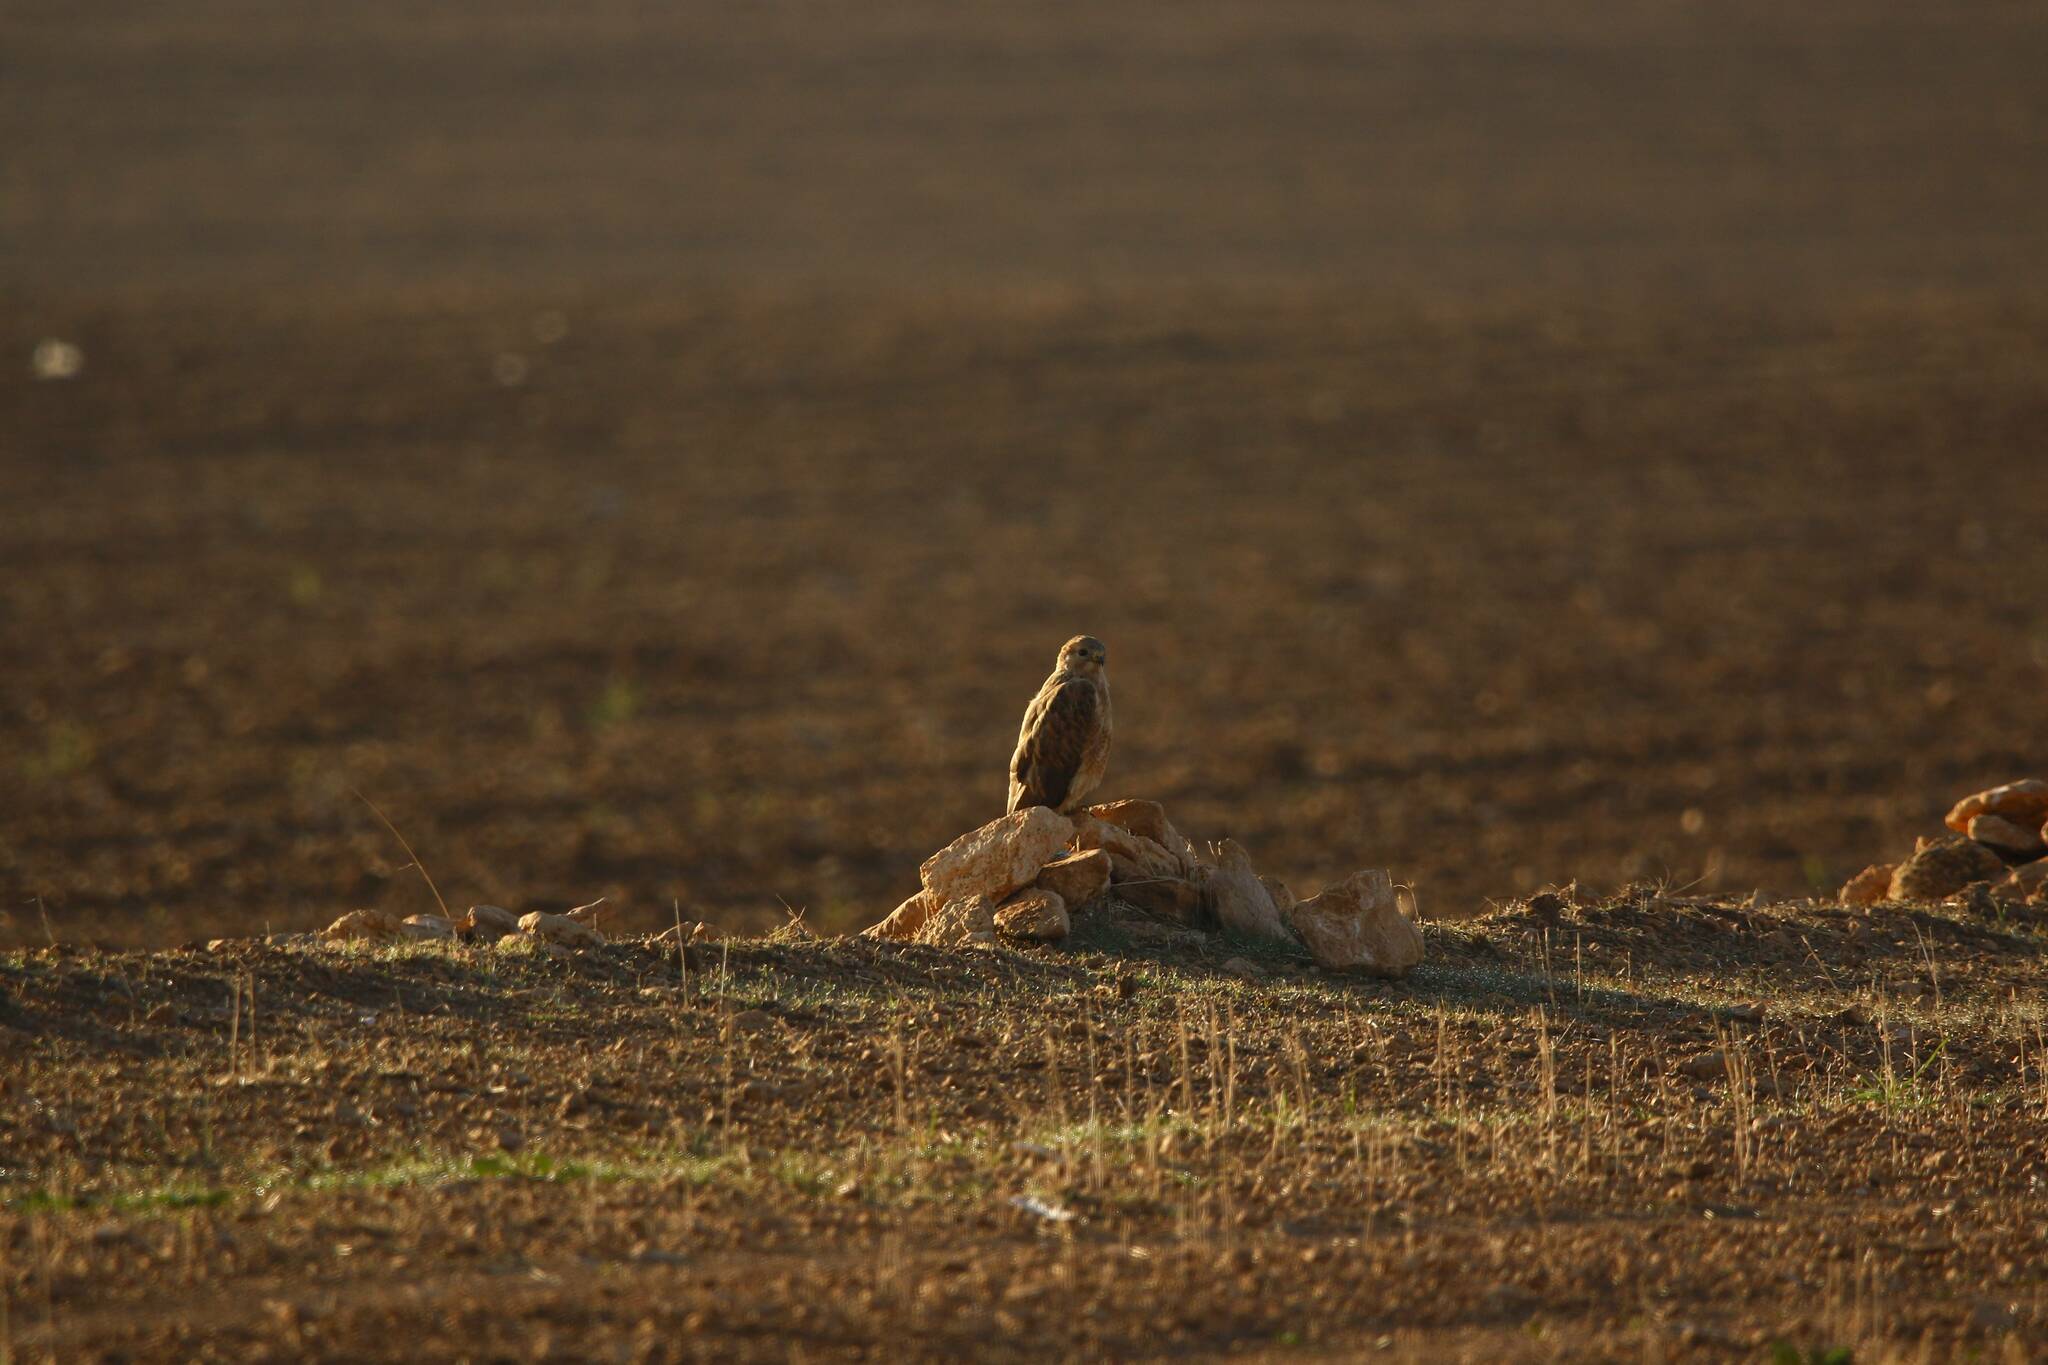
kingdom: Animalia
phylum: Chordata
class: Aves
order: Accipitriformes
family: Accipitridae
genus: Buteo
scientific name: Buteo rufinus
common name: Long-legged buzzard
